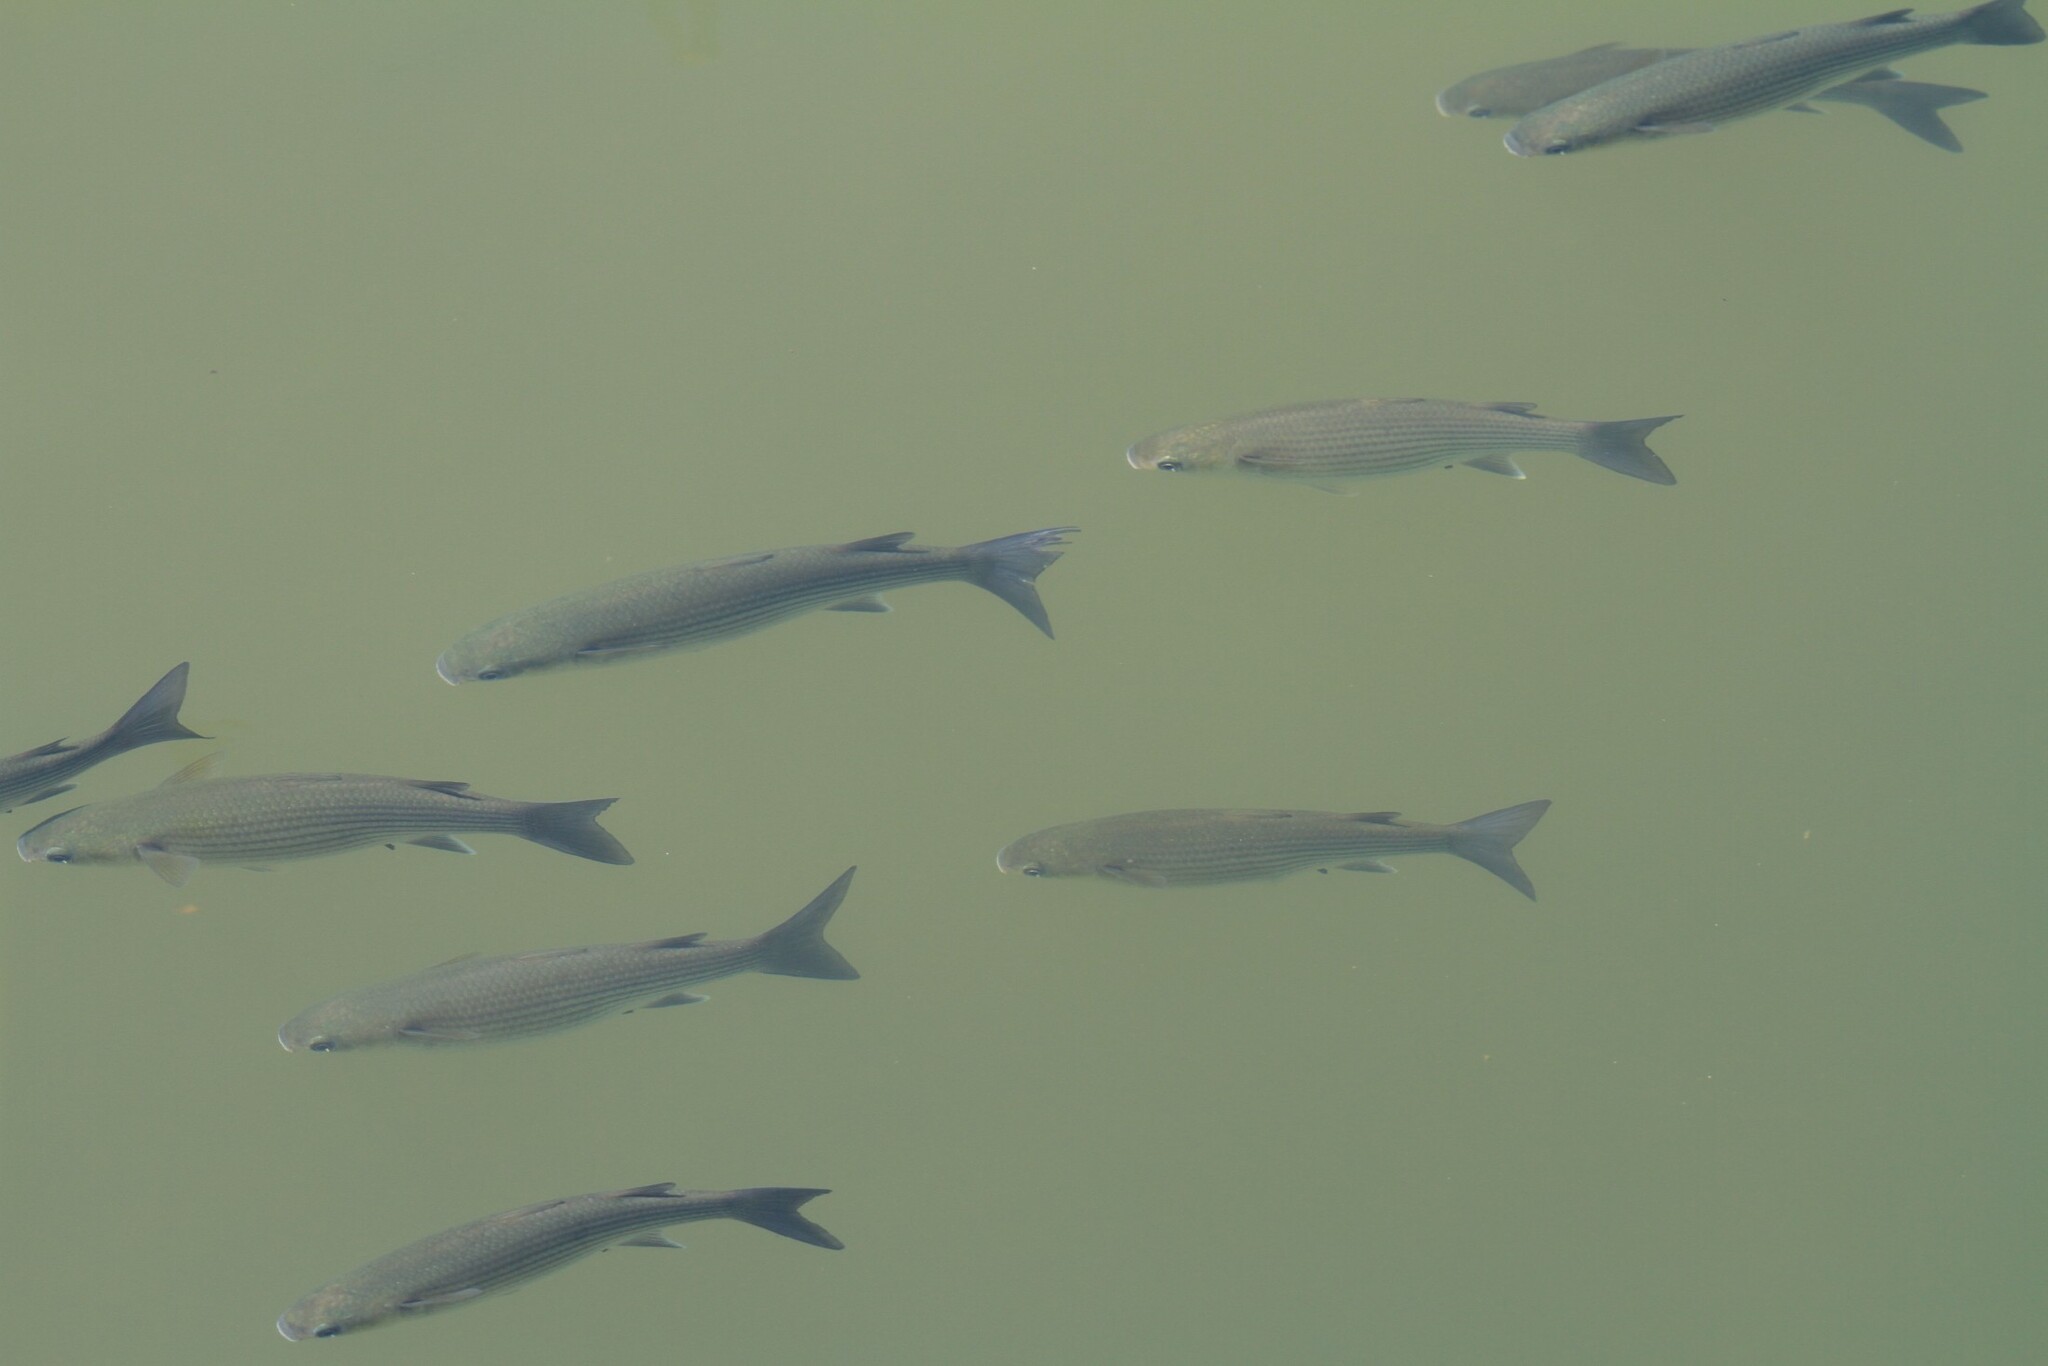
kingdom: Animalia
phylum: Chordata
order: Mugiliformes
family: Mugilidae
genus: Chelon
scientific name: Chelon labrosus
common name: Thick-lipped mullet
